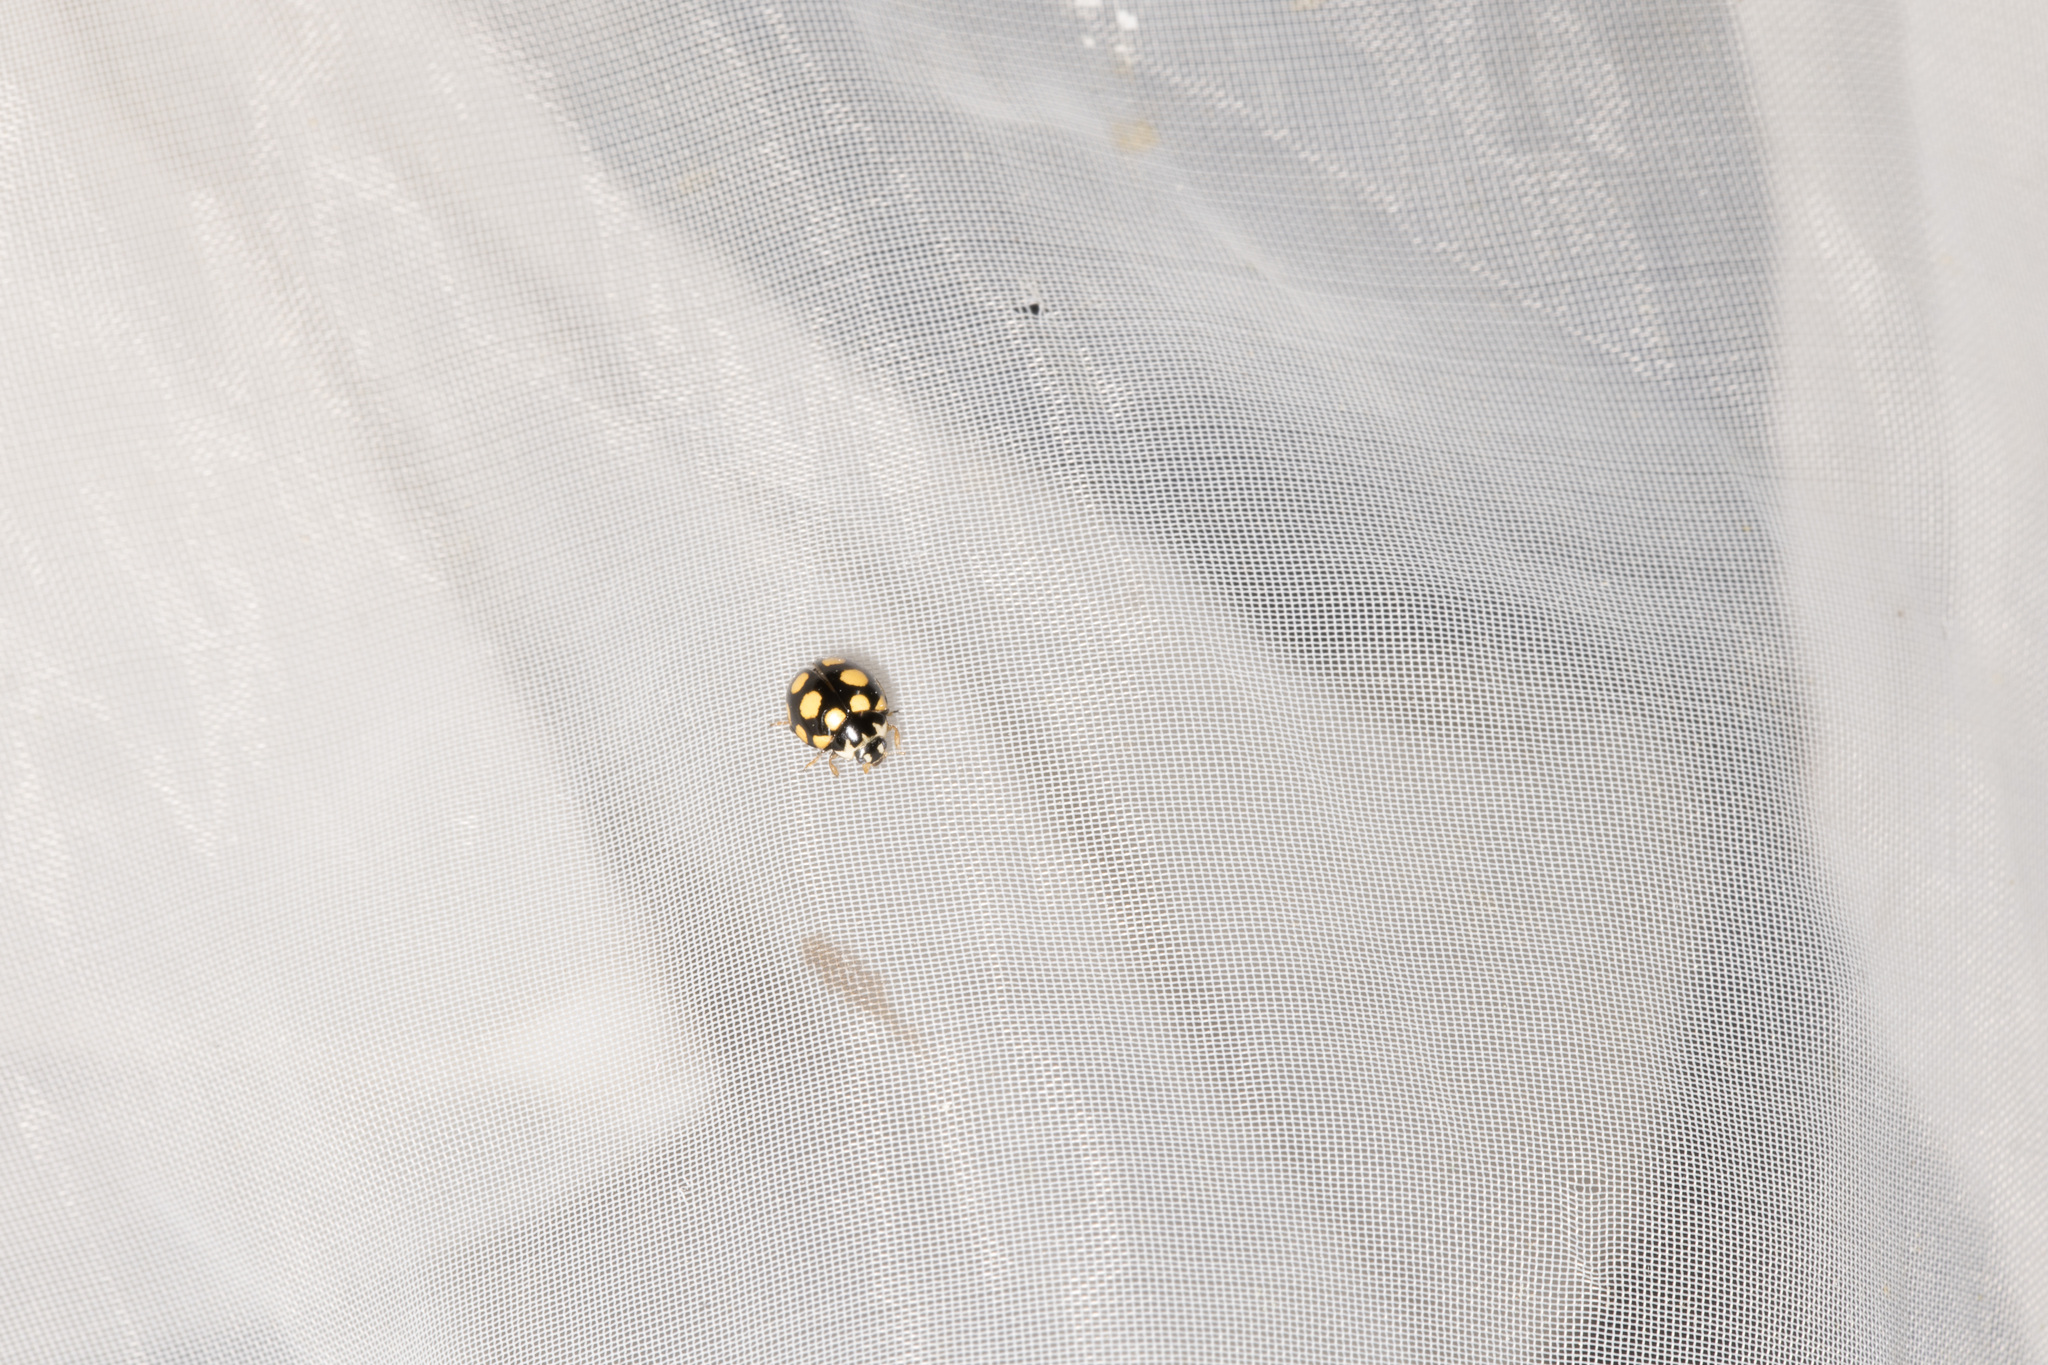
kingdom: Animalia
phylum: Arthropoda
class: Insecta
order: Coleoptera
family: Coccinellidae
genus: Coccinula
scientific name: Coccinula quatuordecimpustulata
